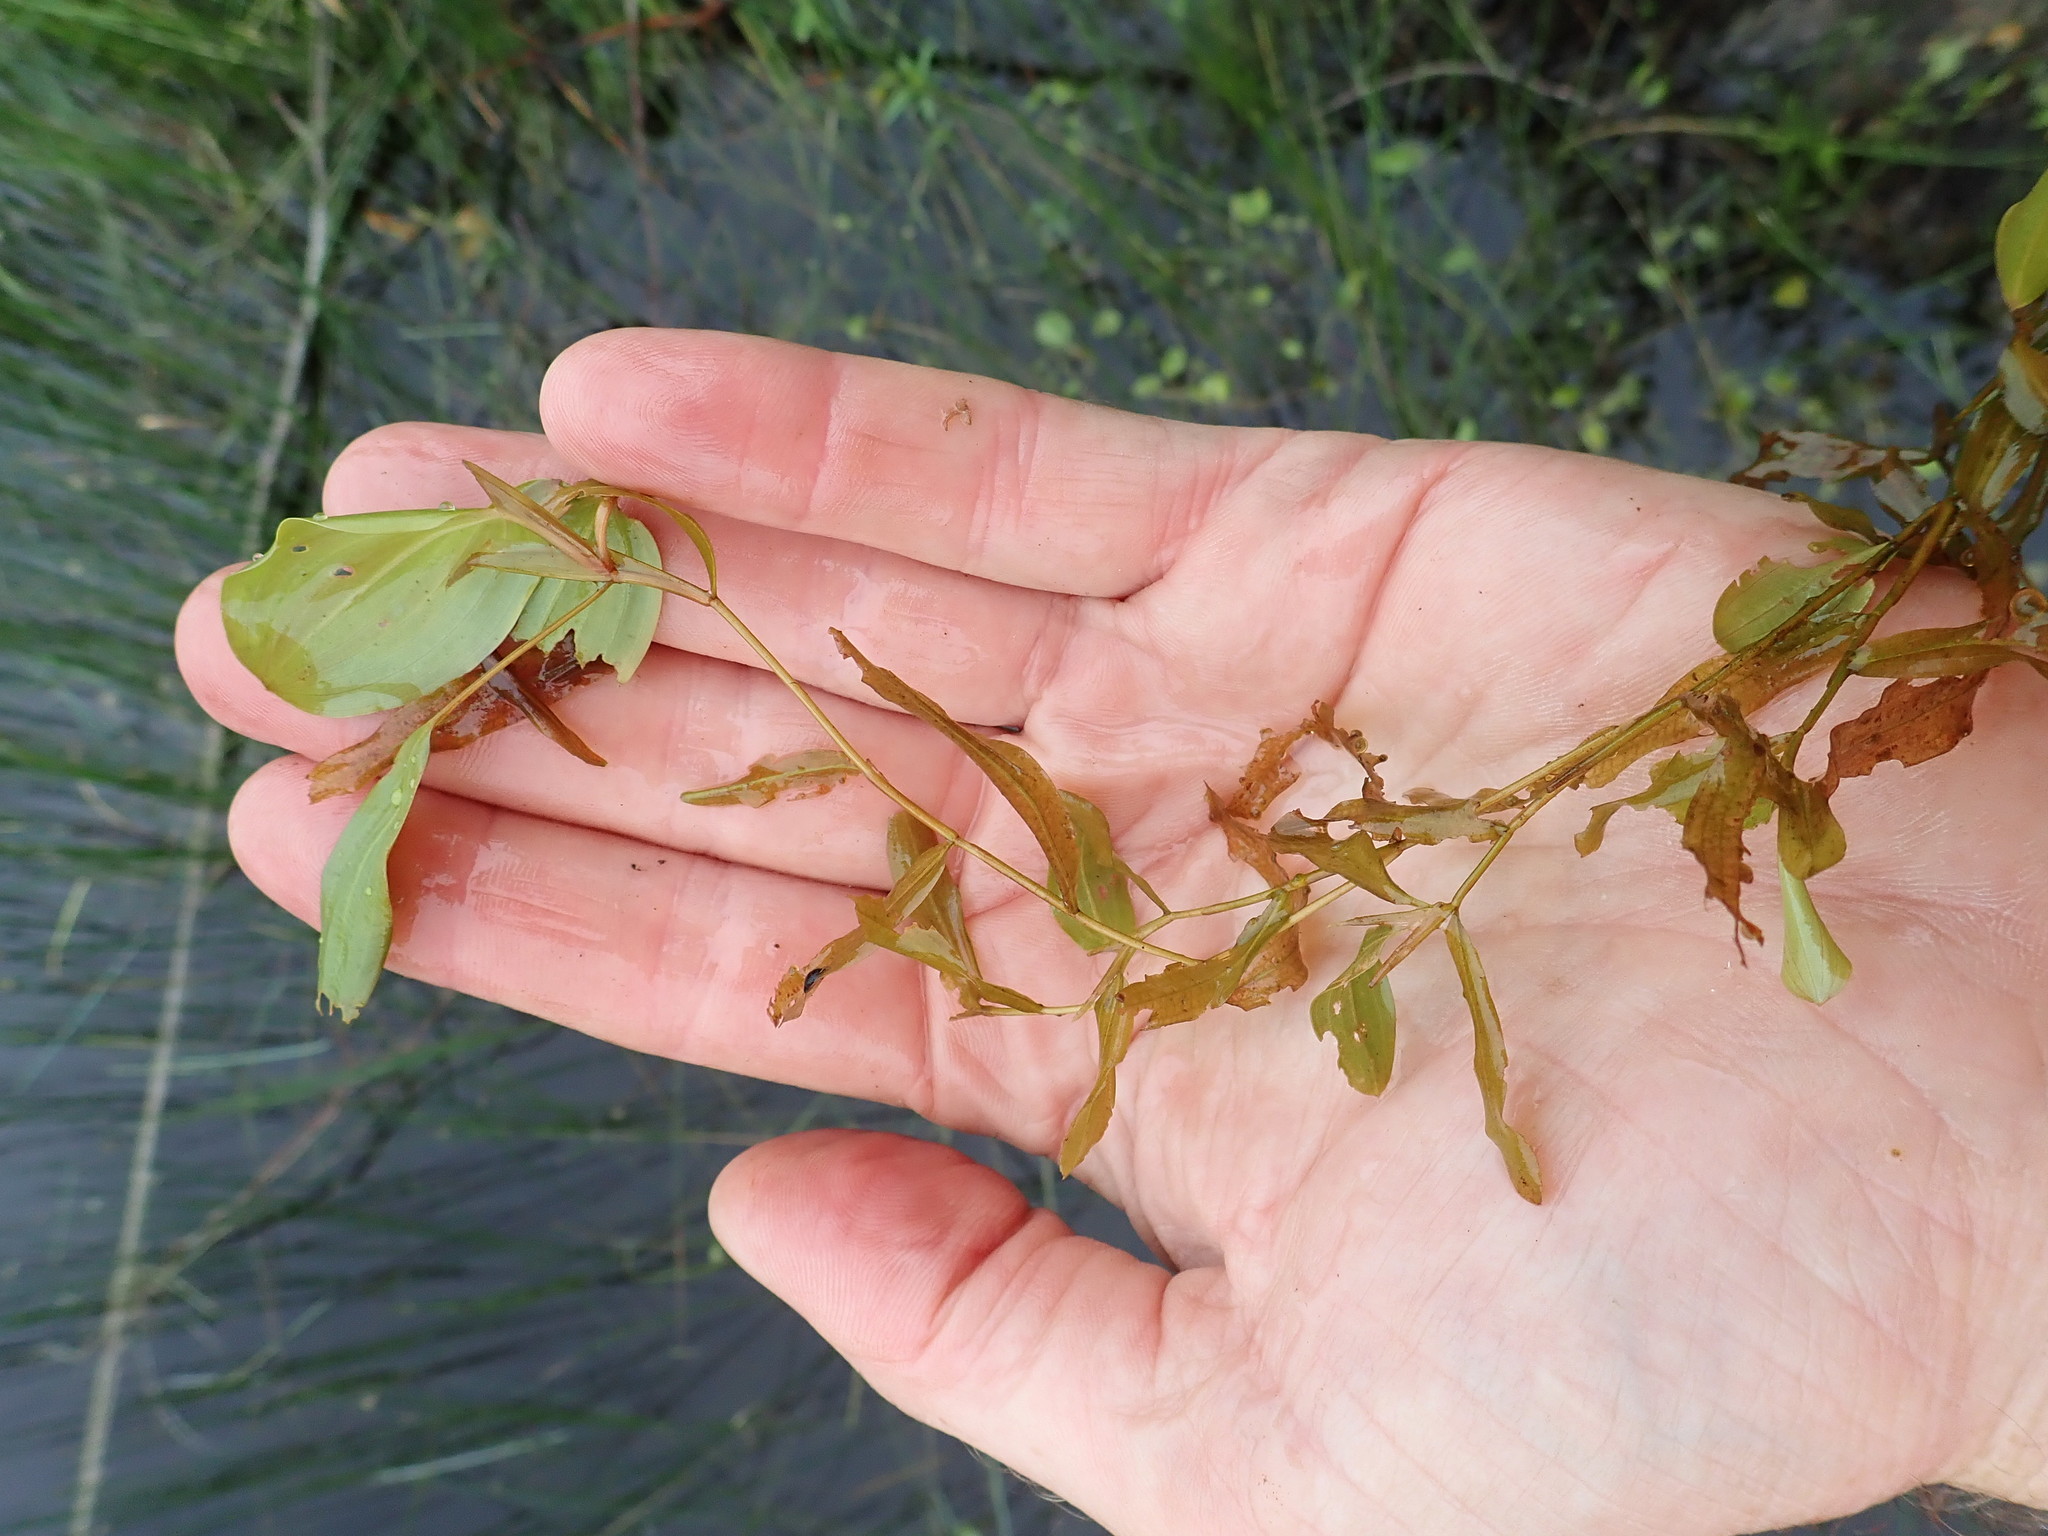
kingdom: Plantae
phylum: Tracheophyta
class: Liliopsida
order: Alismatales
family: Potamogetonaceae
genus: Potamogeton
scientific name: Potamogeton gramineus
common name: Various-leaved pondweed
